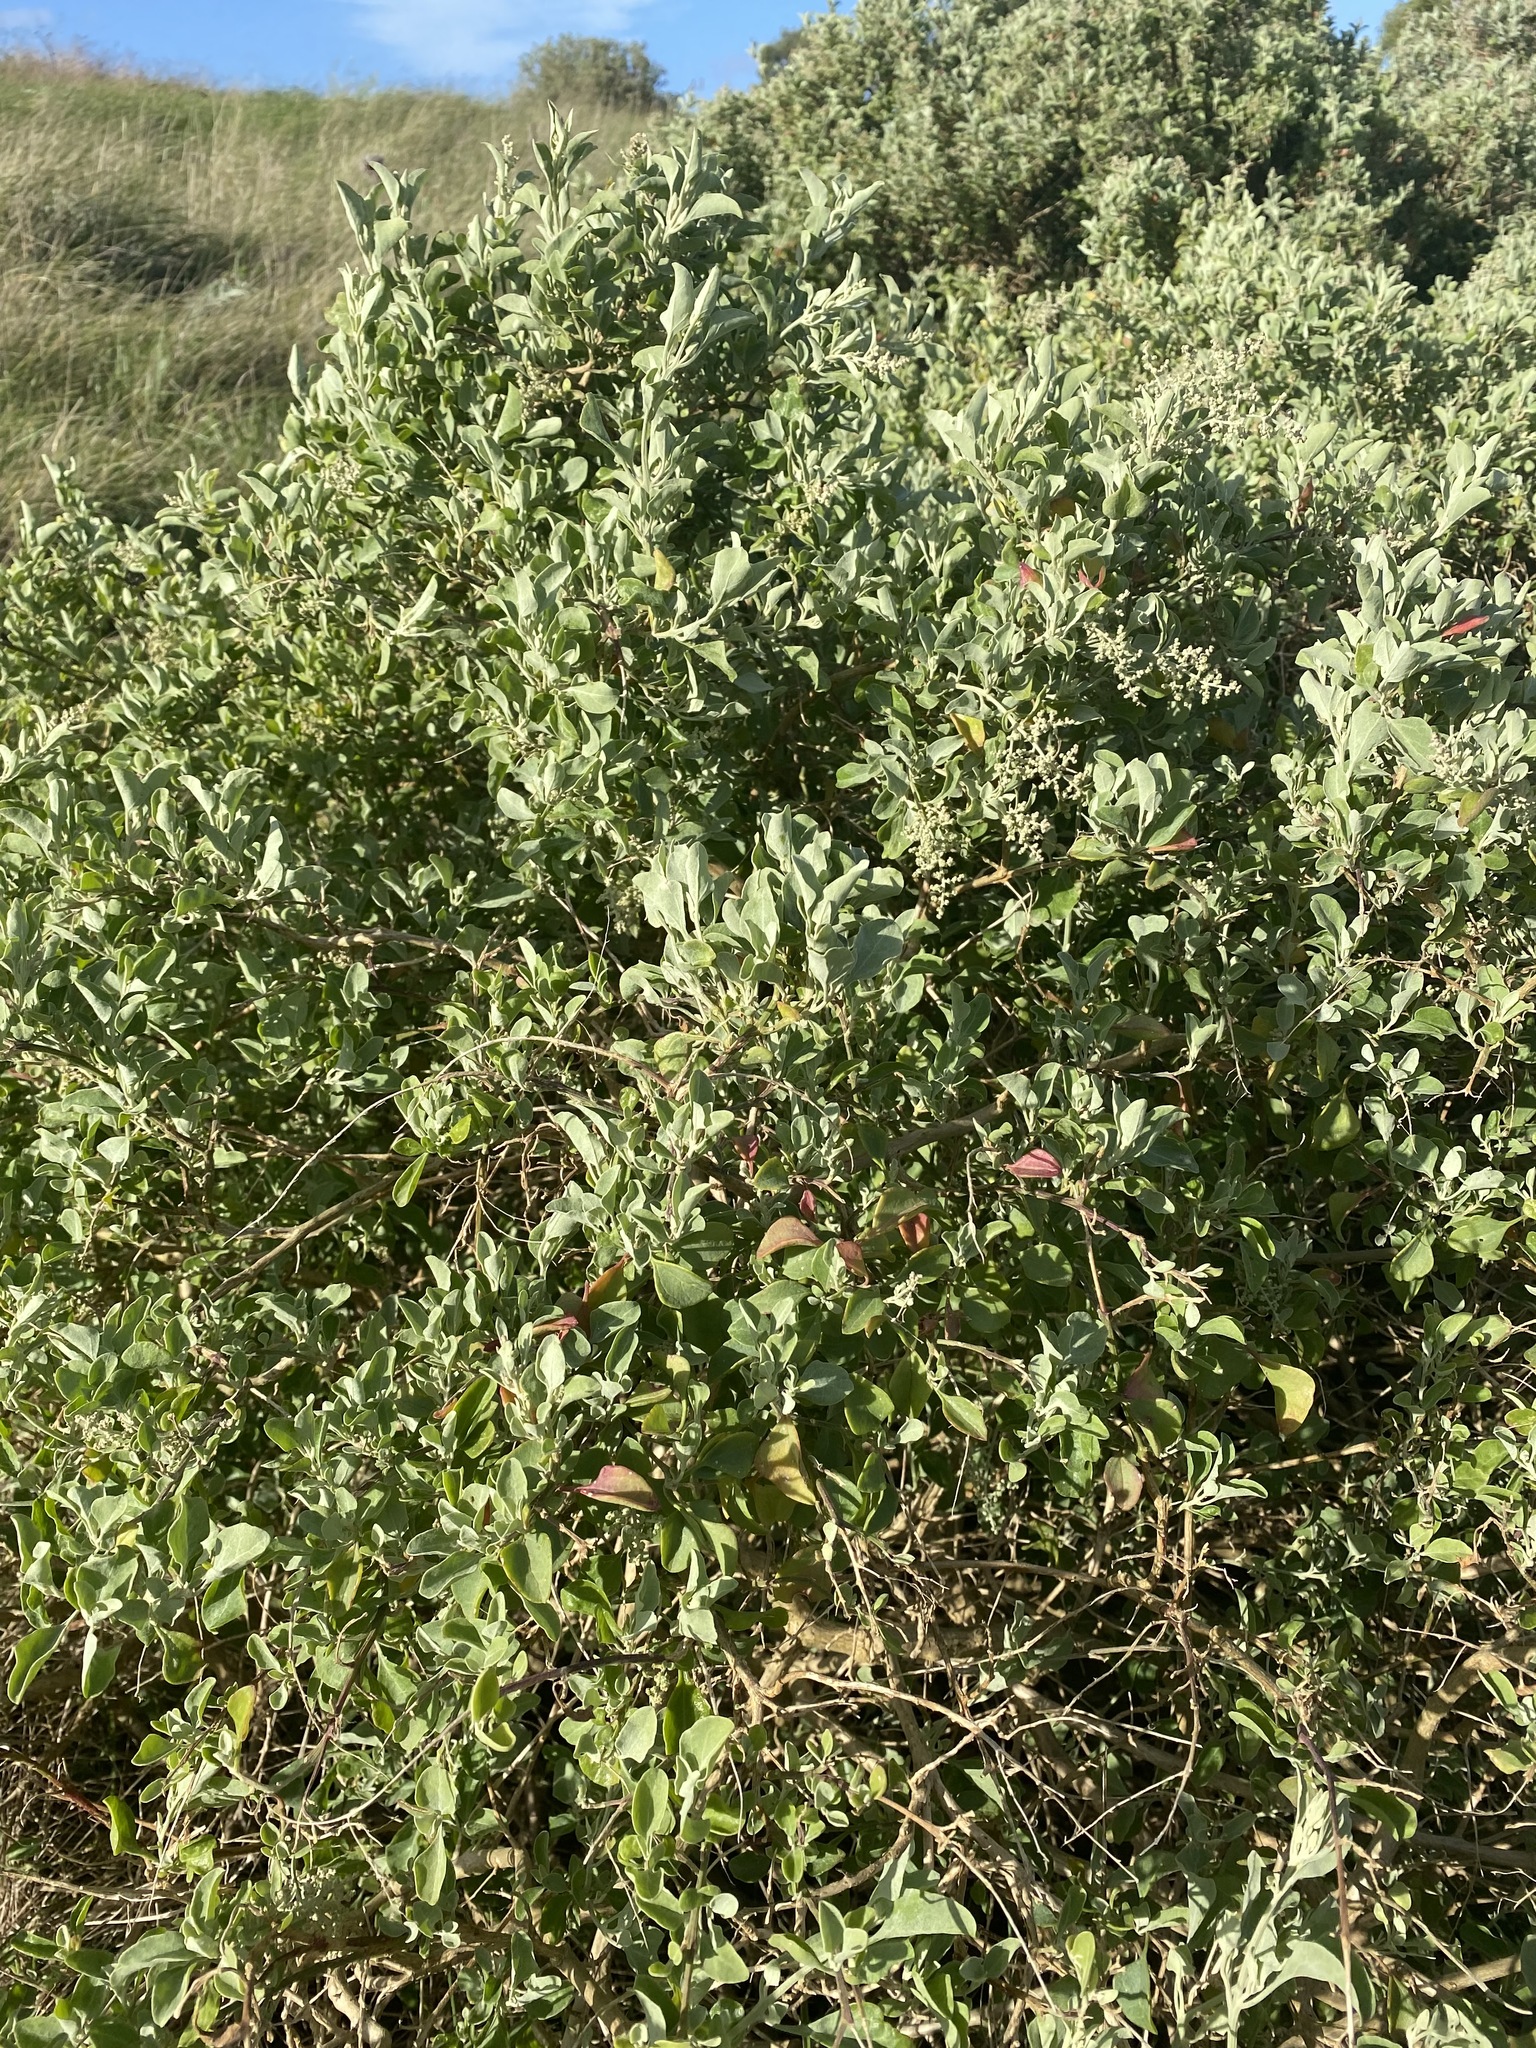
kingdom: Plantae
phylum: Tracheophyta
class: Magnoliopsida
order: Caryophyllales
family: Amaranthaceae
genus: Chenopodium
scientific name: Chenopodium parabolicum
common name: Old-man-saltbush
